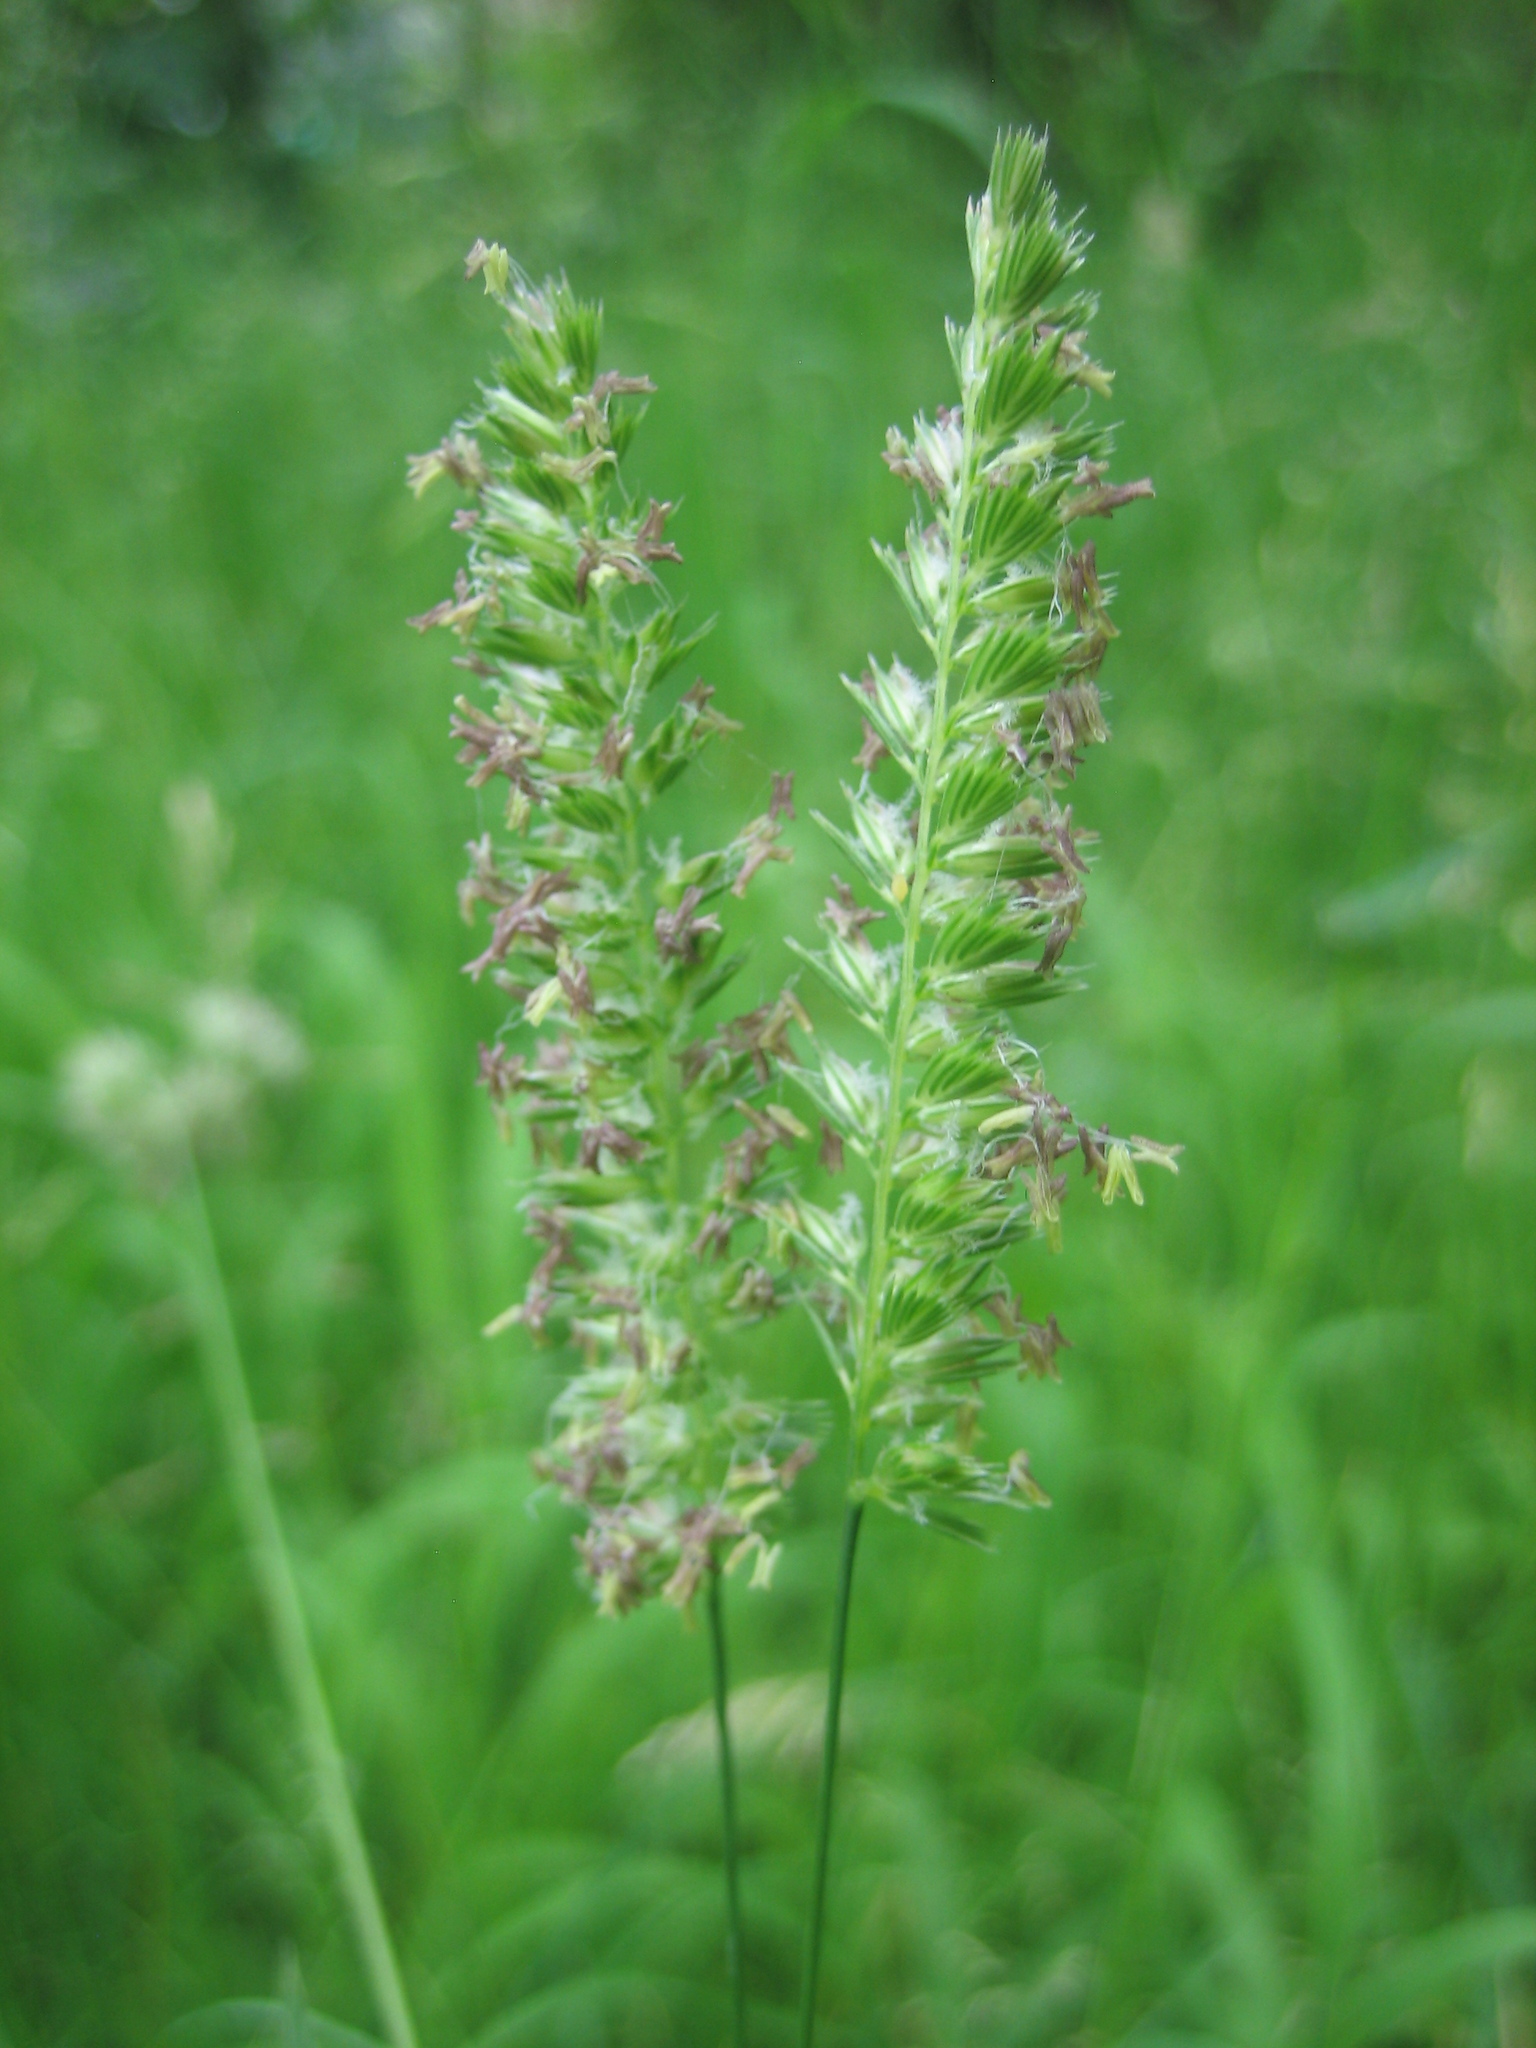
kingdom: Plantae
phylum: Tracheophyta
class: Liliopsida
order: Poales
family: Poaceae
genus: Cynosurus
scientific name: Cynosurus cristatus
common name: Crested dog's-tail
